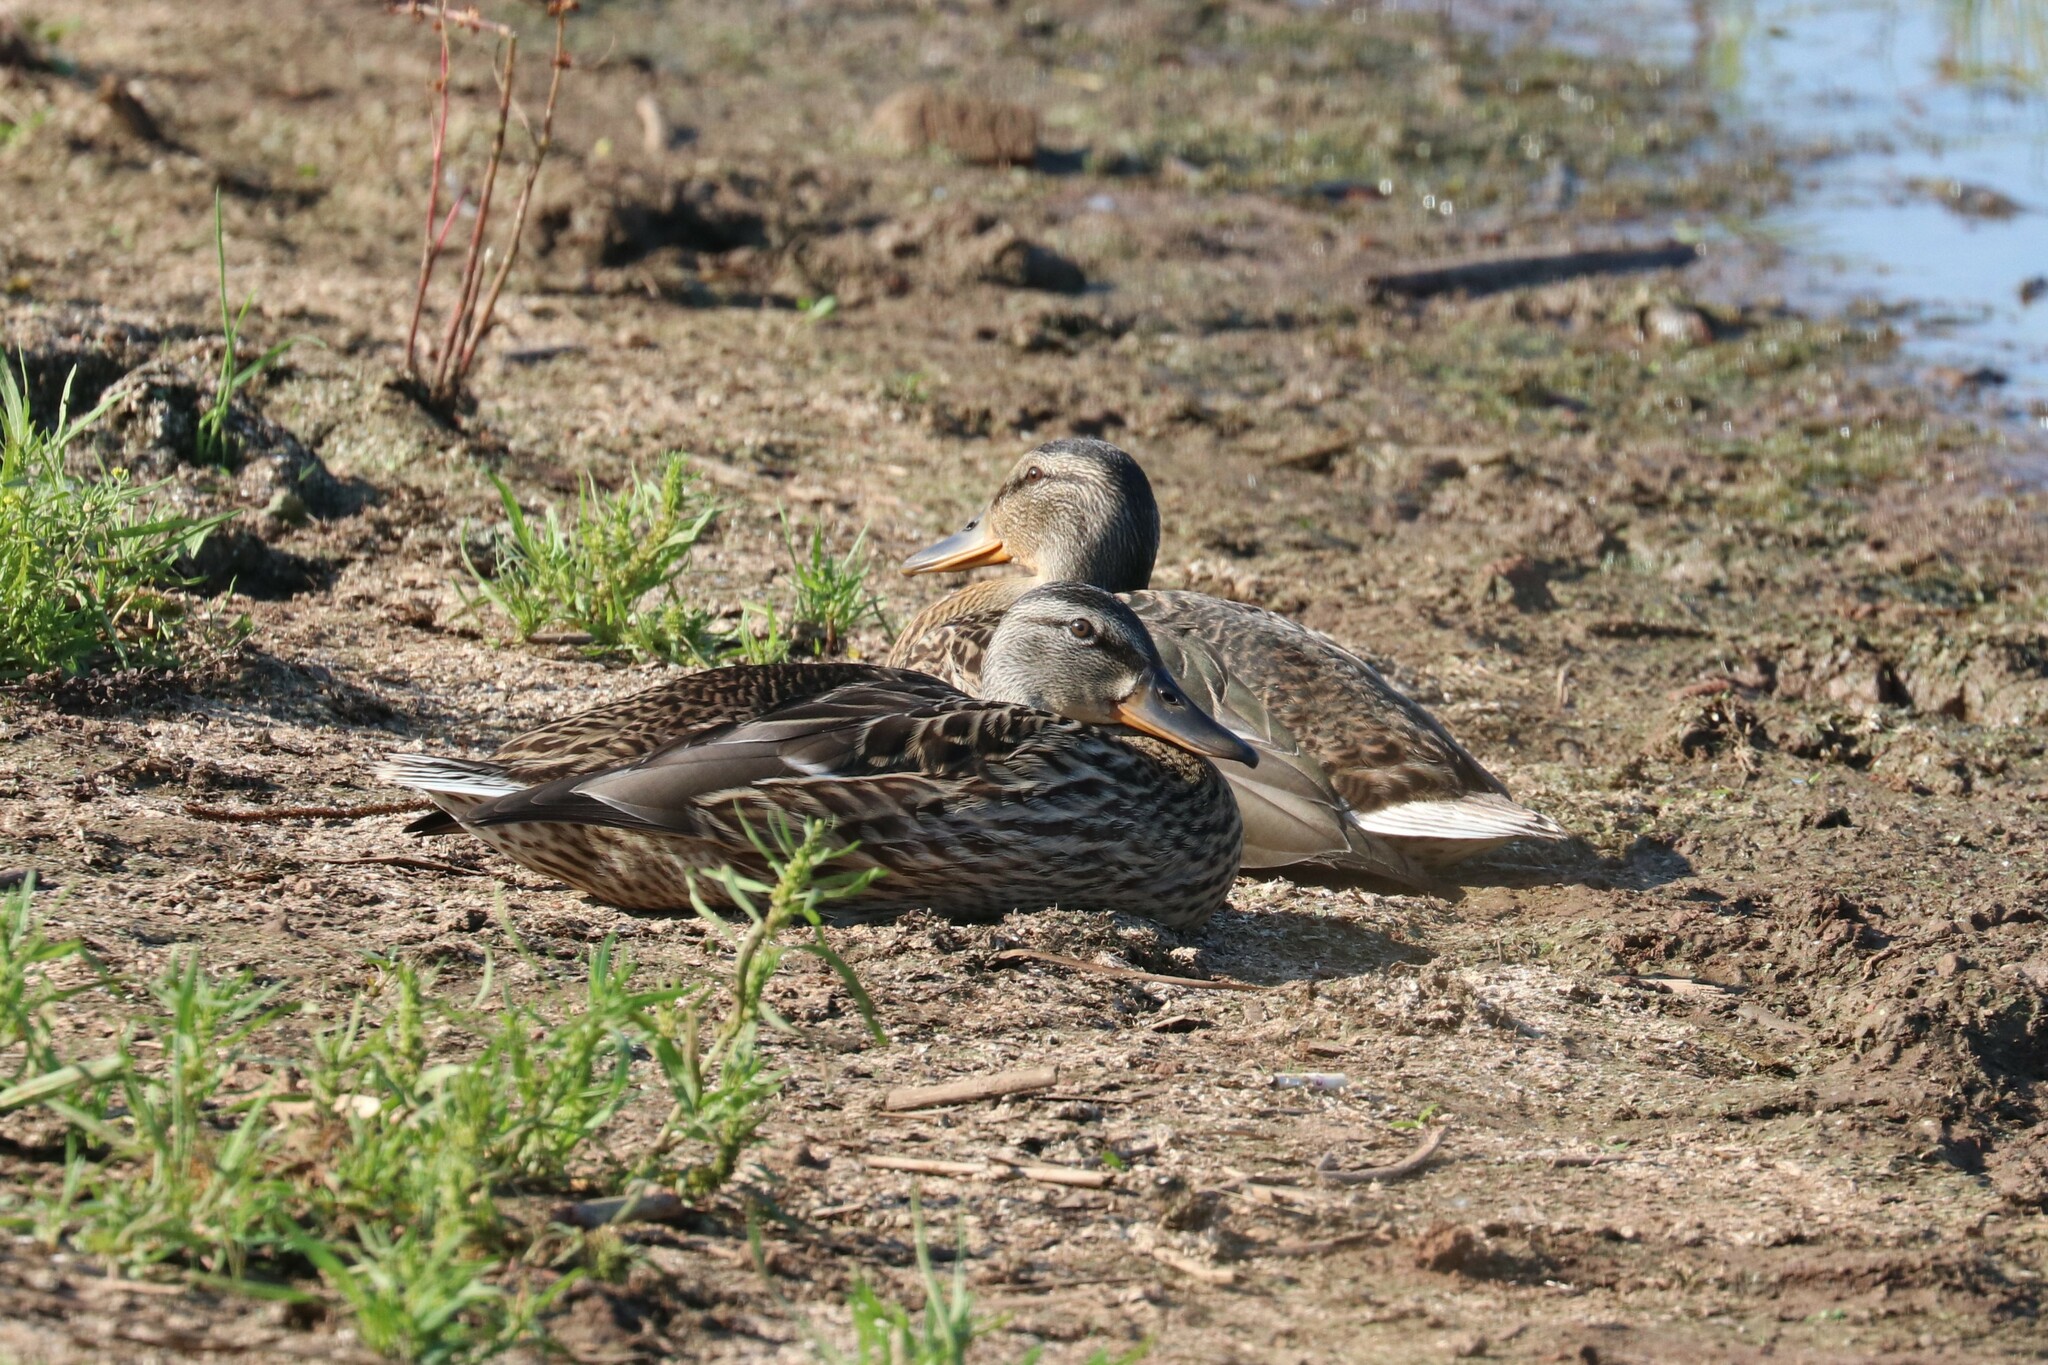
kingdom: Animalia
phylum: Chordata
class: Aves
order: Anseriformes
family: Anatidae
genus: Anas
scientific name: Anas platyrhynchos
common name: Mallard
